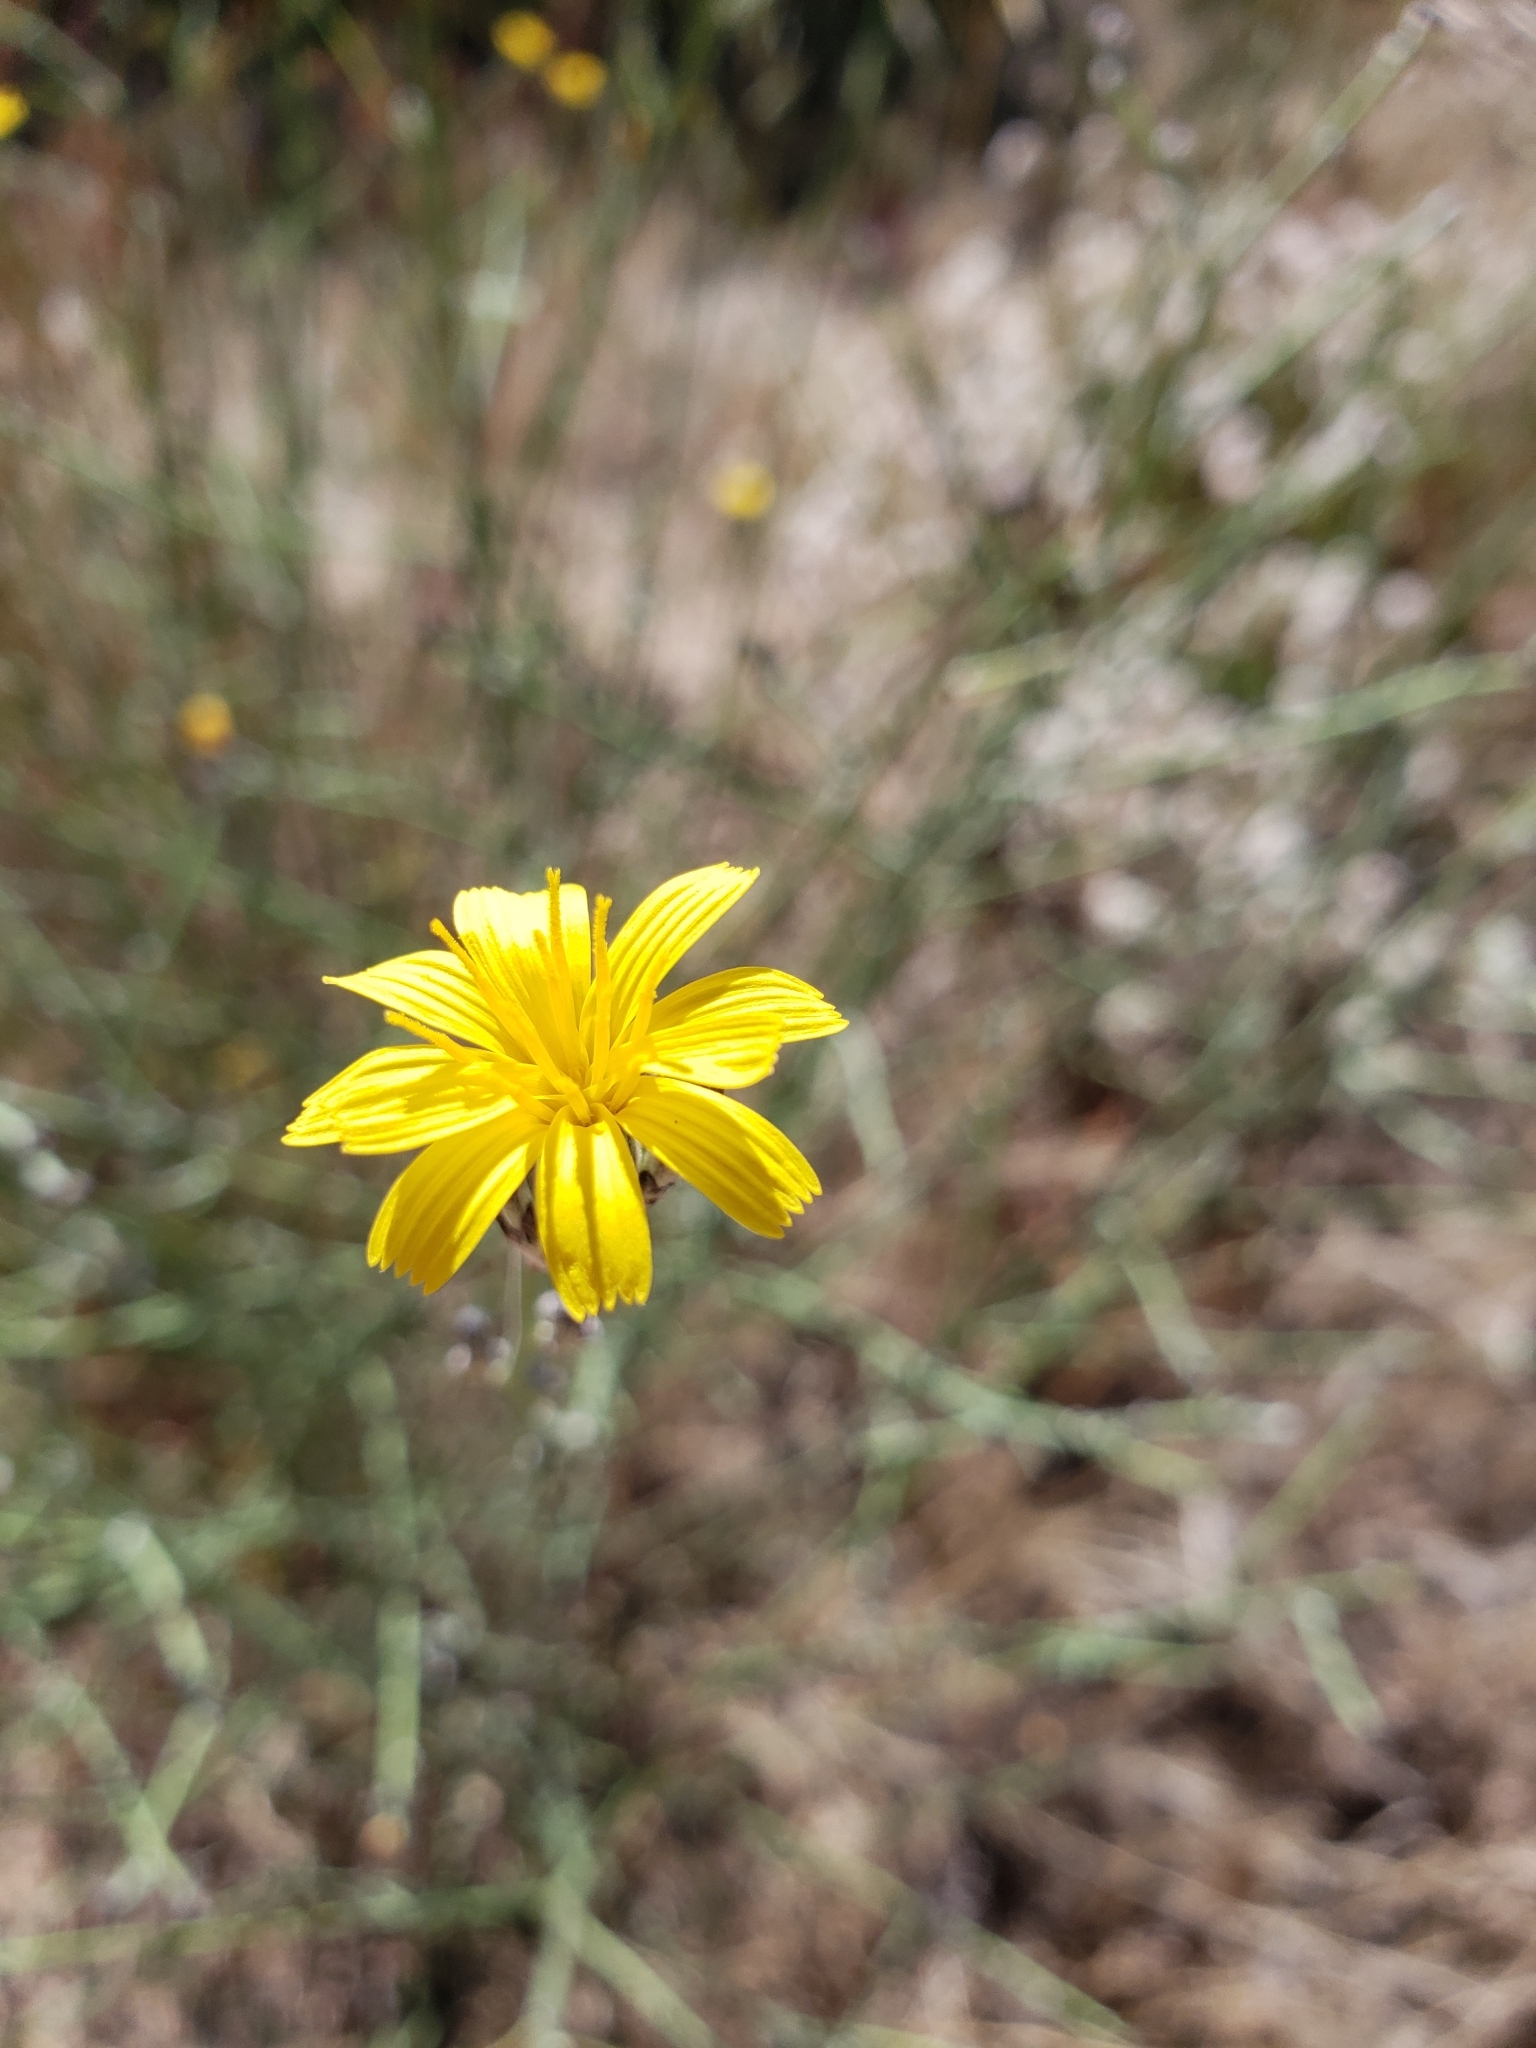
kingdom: Plantae
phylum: Tracheophyta
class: Magnoliopsida
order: Asterales
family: Asteraceae
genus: Chondrilla
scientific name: Chondrilla juncea
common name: Skeleton weed
